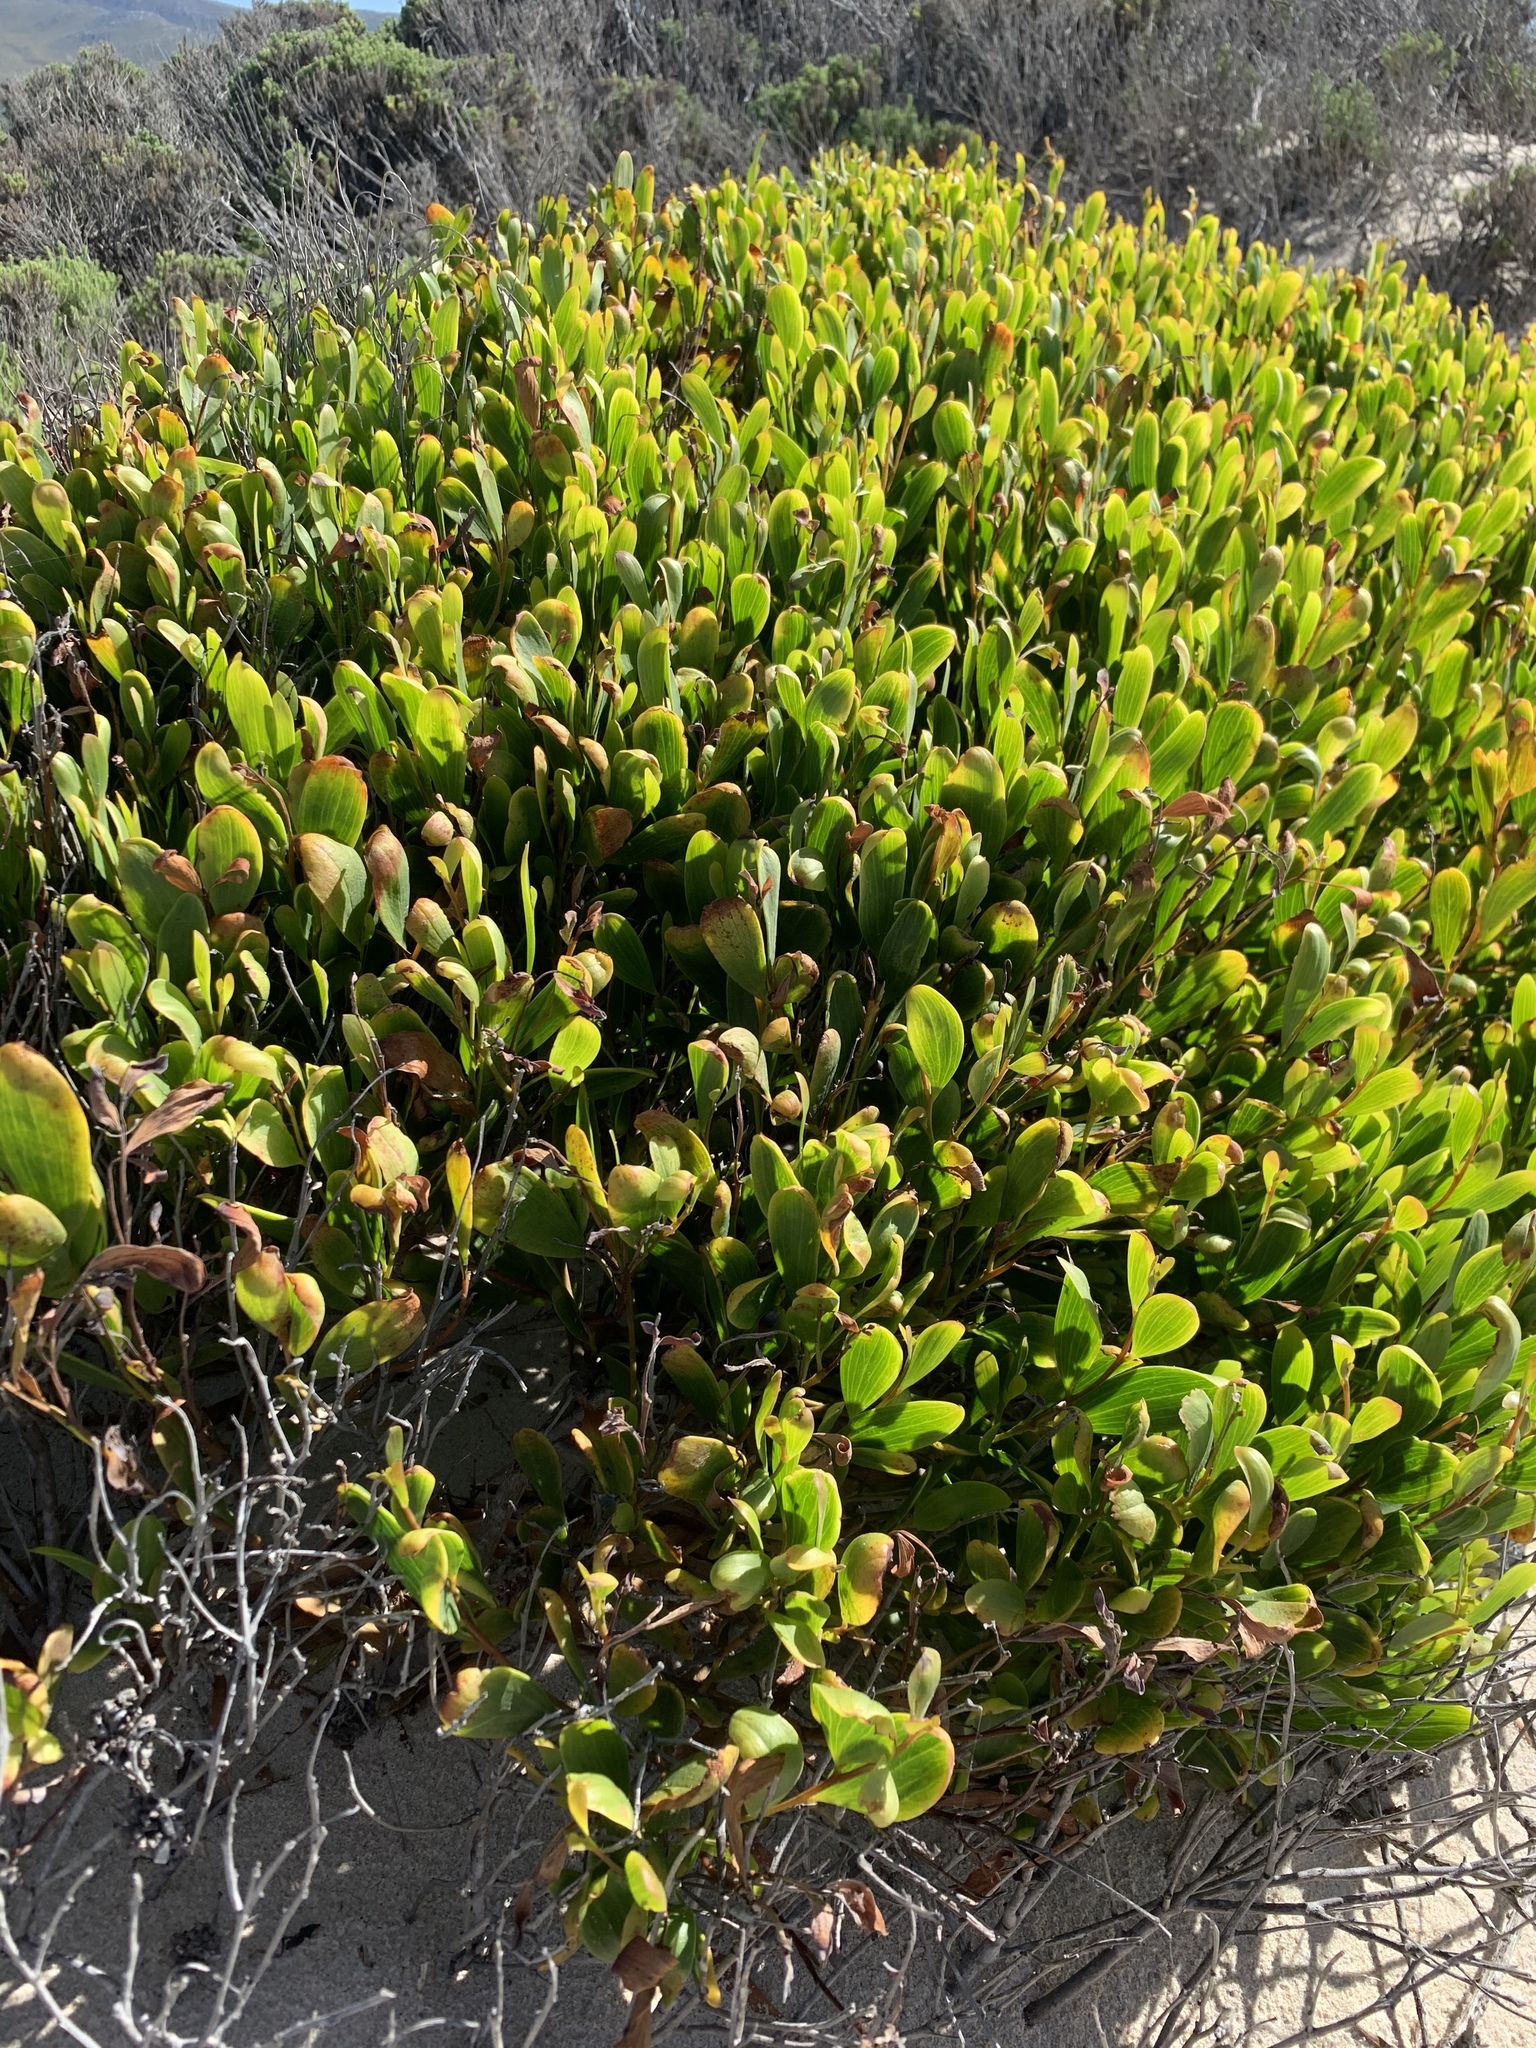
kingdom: Plantae
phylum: Tracheophyta
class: Magnoliopsida
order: Fabales
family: Fabaceae
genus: Acacia
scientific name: Acacia cyclops
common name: Coastal wattle
